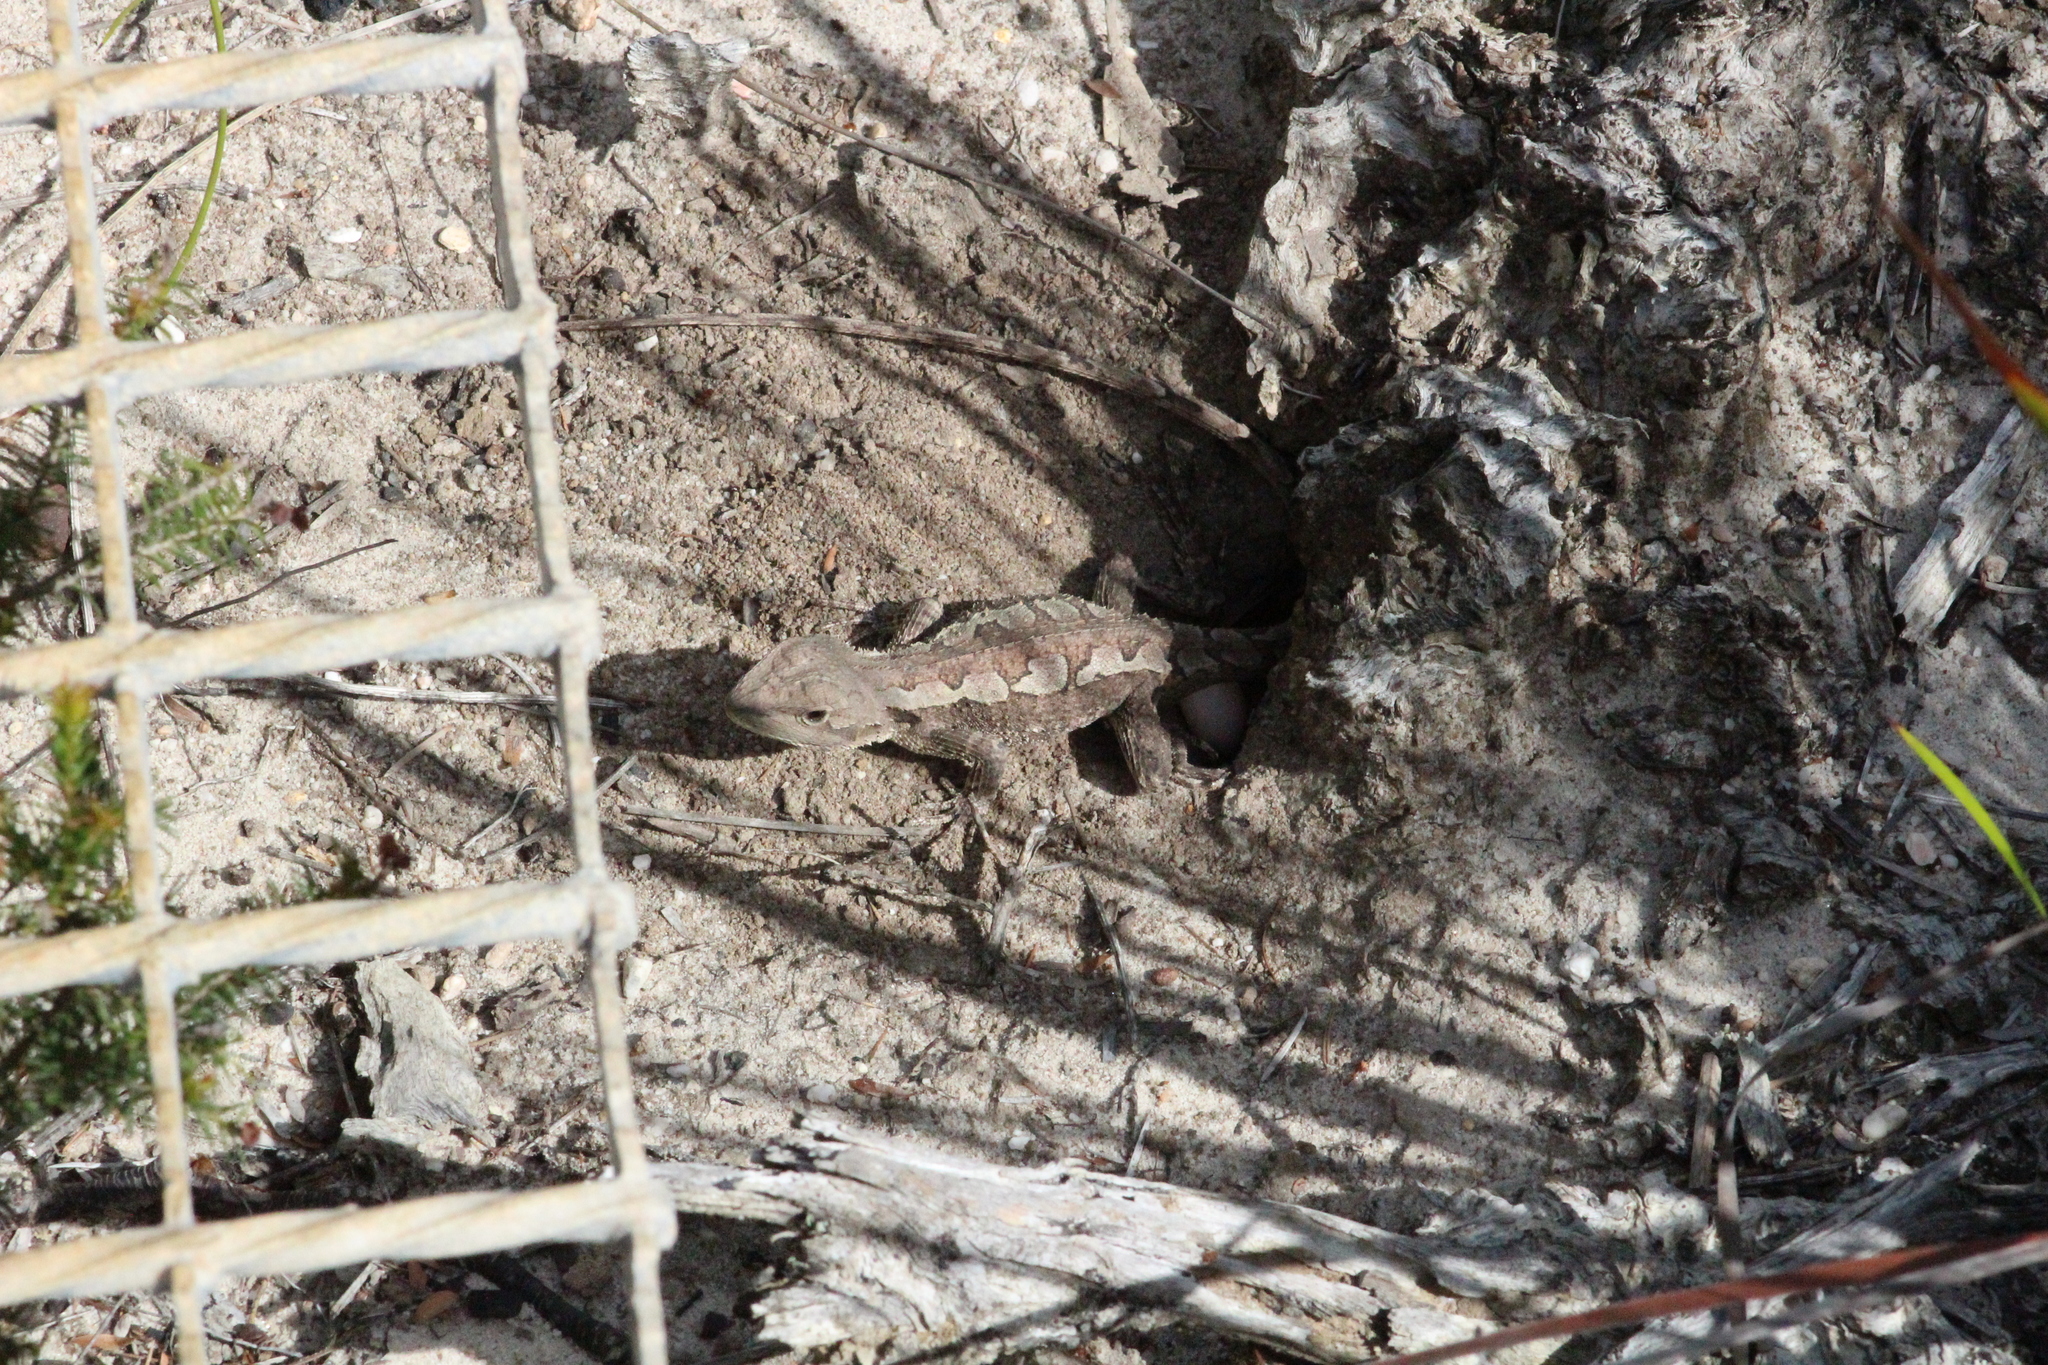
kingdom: Animalia
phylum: Chordata
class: Squamata
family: Agamidae
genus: Amphibolurus
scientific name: Amphibolurus muricatus
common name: Jacky lizard
